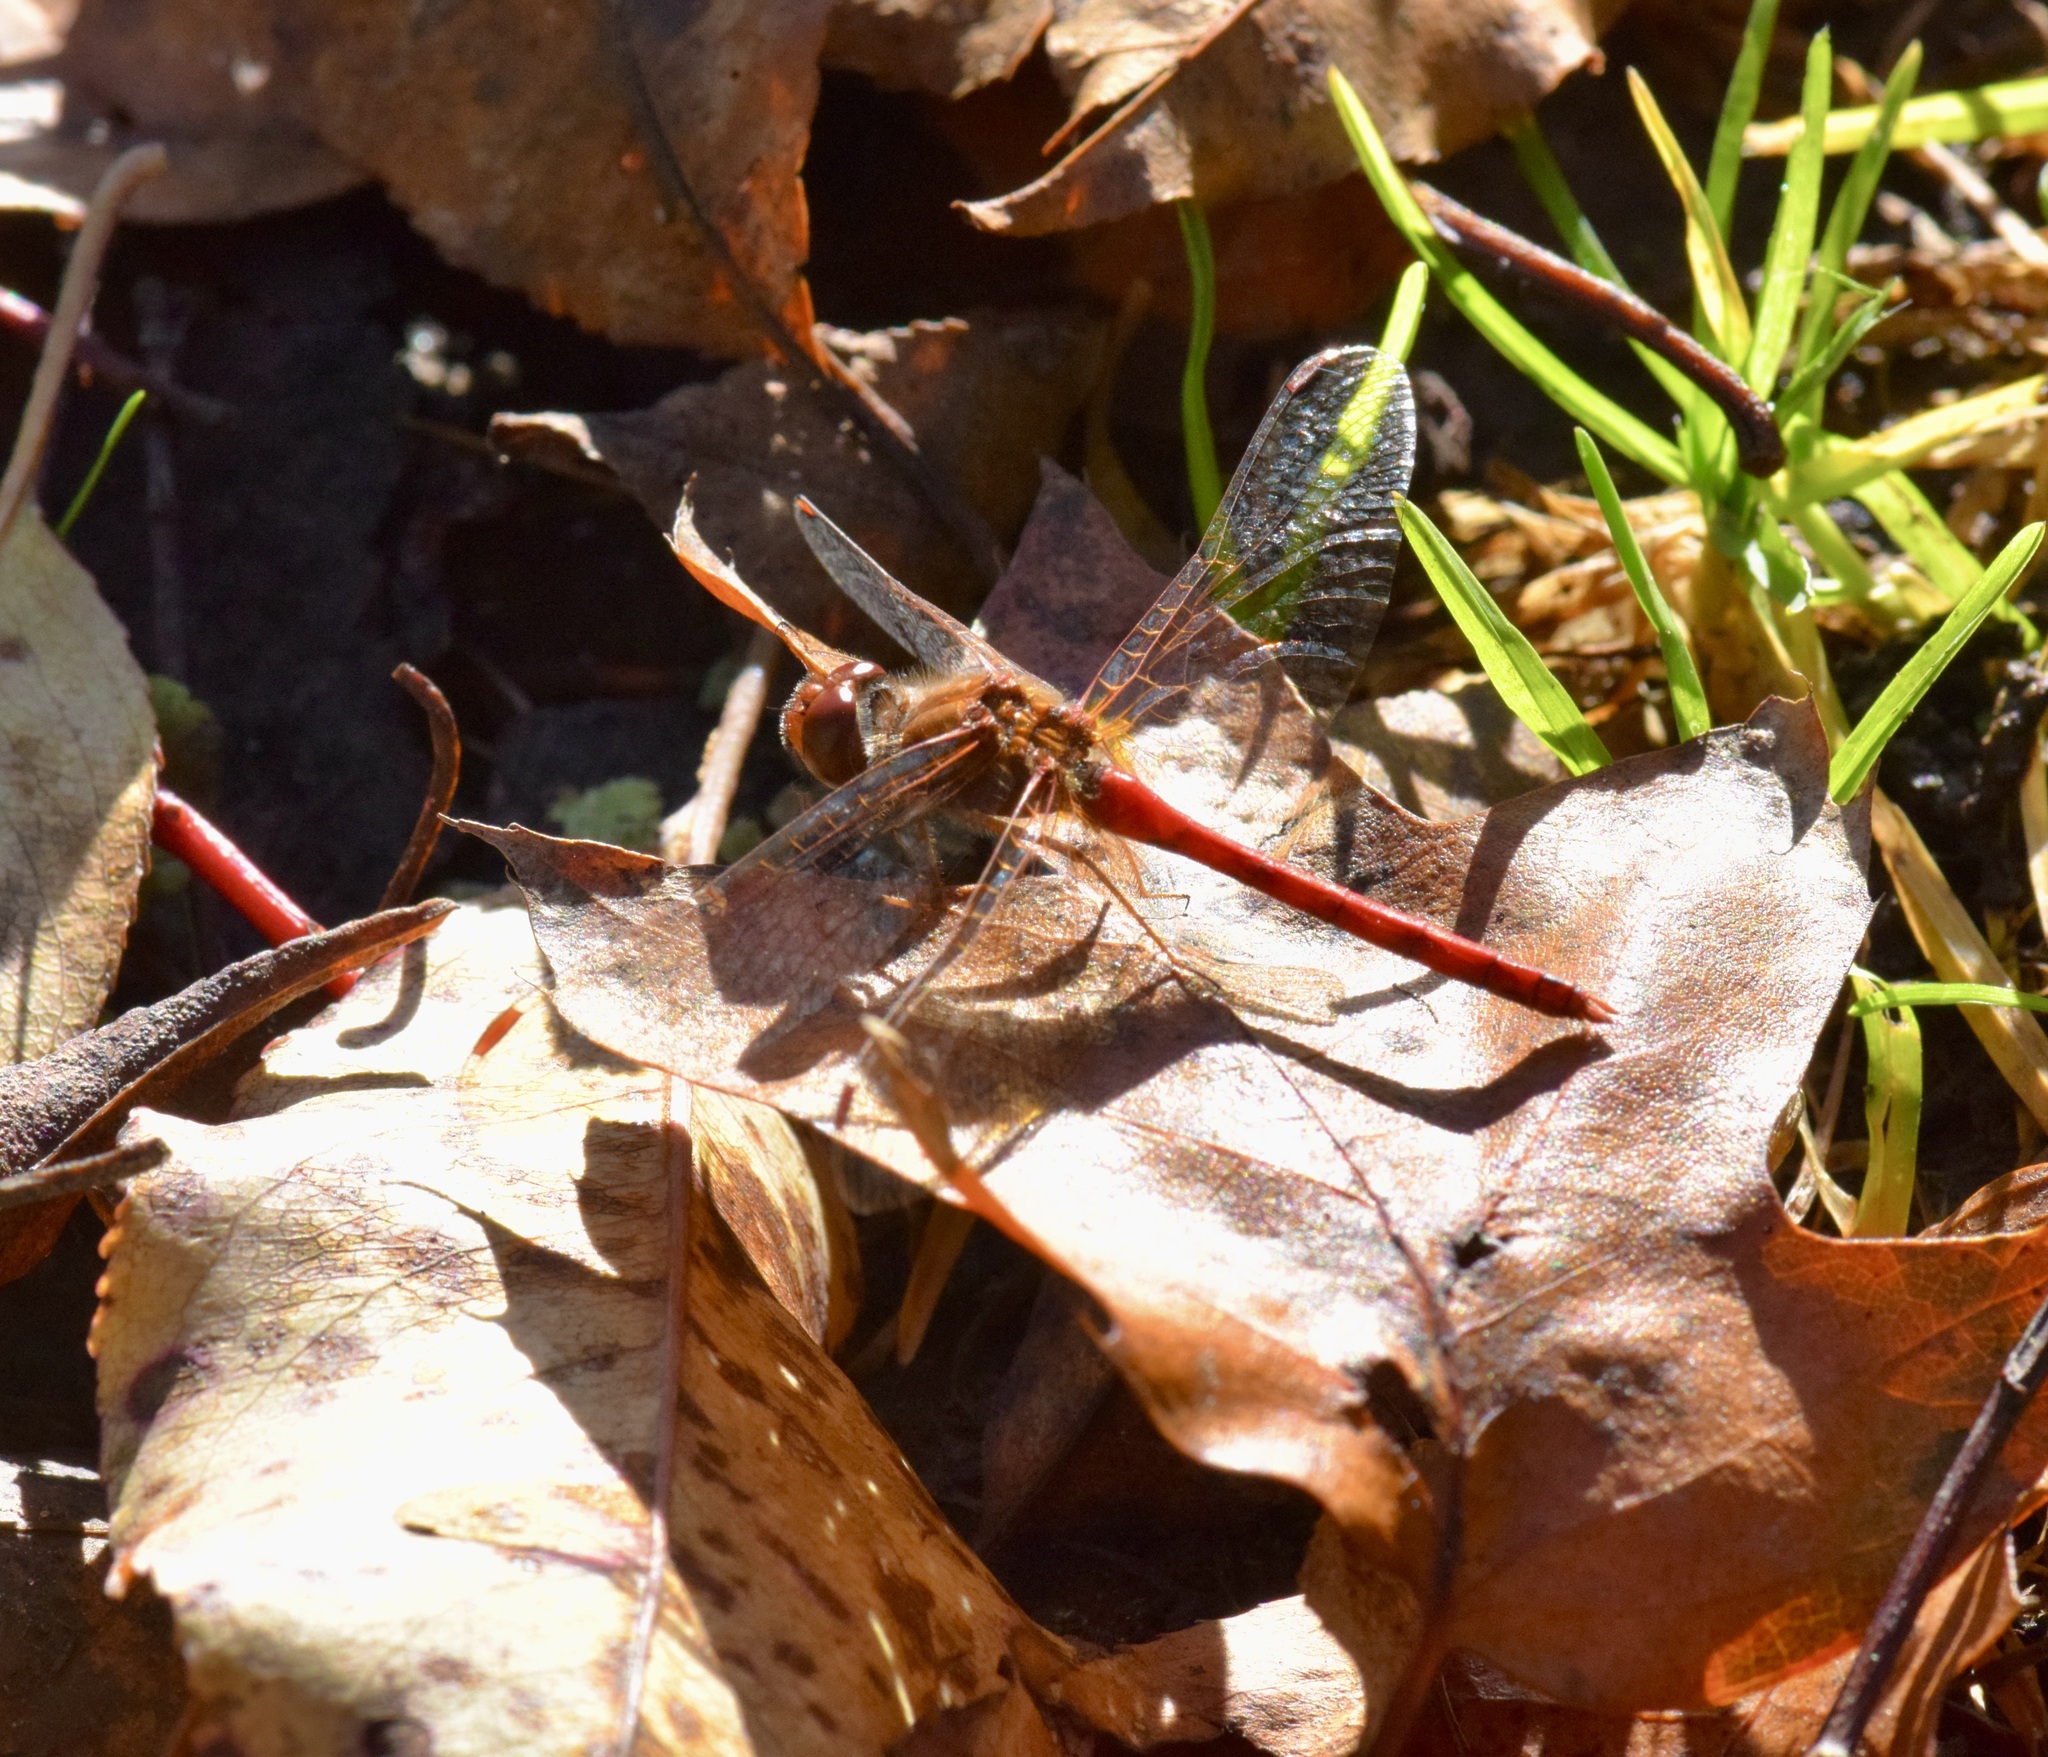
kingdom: Animalia
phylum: Arthropoda
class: Insecta
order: Odonata
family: Libellulidae
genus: Sympetrum
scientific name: Sympetrum vicinum
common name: Autumn meadowhawk
